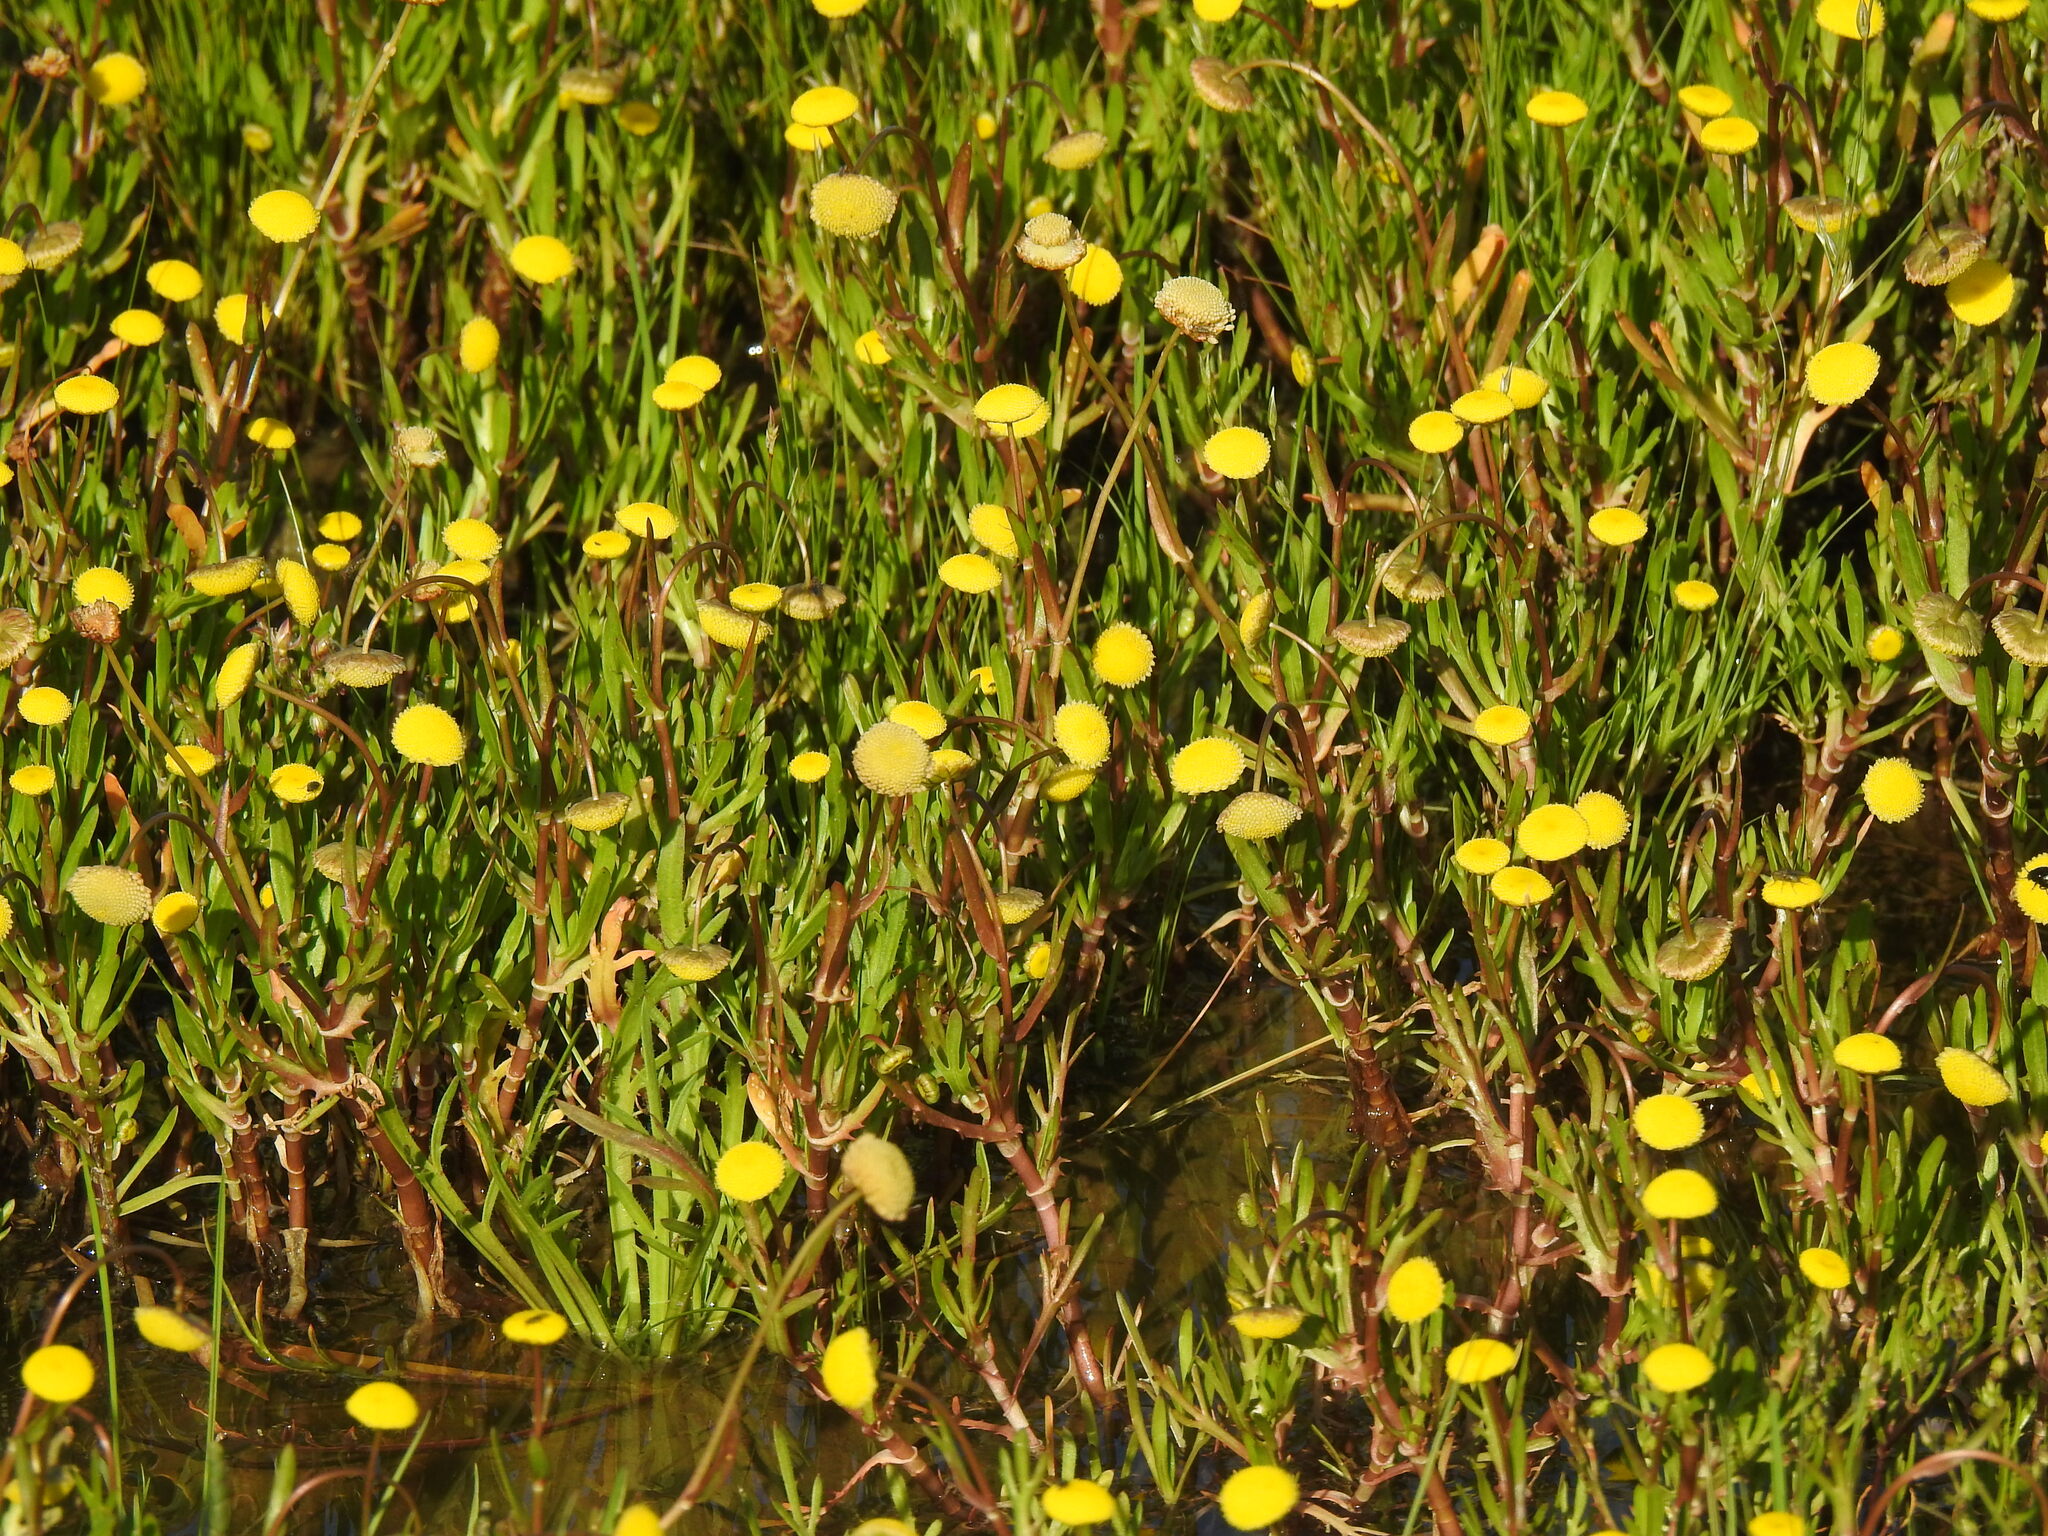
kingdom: Plantae
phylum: Tracheophyta
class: Magnoliopsida
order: Asterales
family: Asteraceae
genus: Cotula
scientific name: Cotula coronopifolia
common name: Buttonweed
